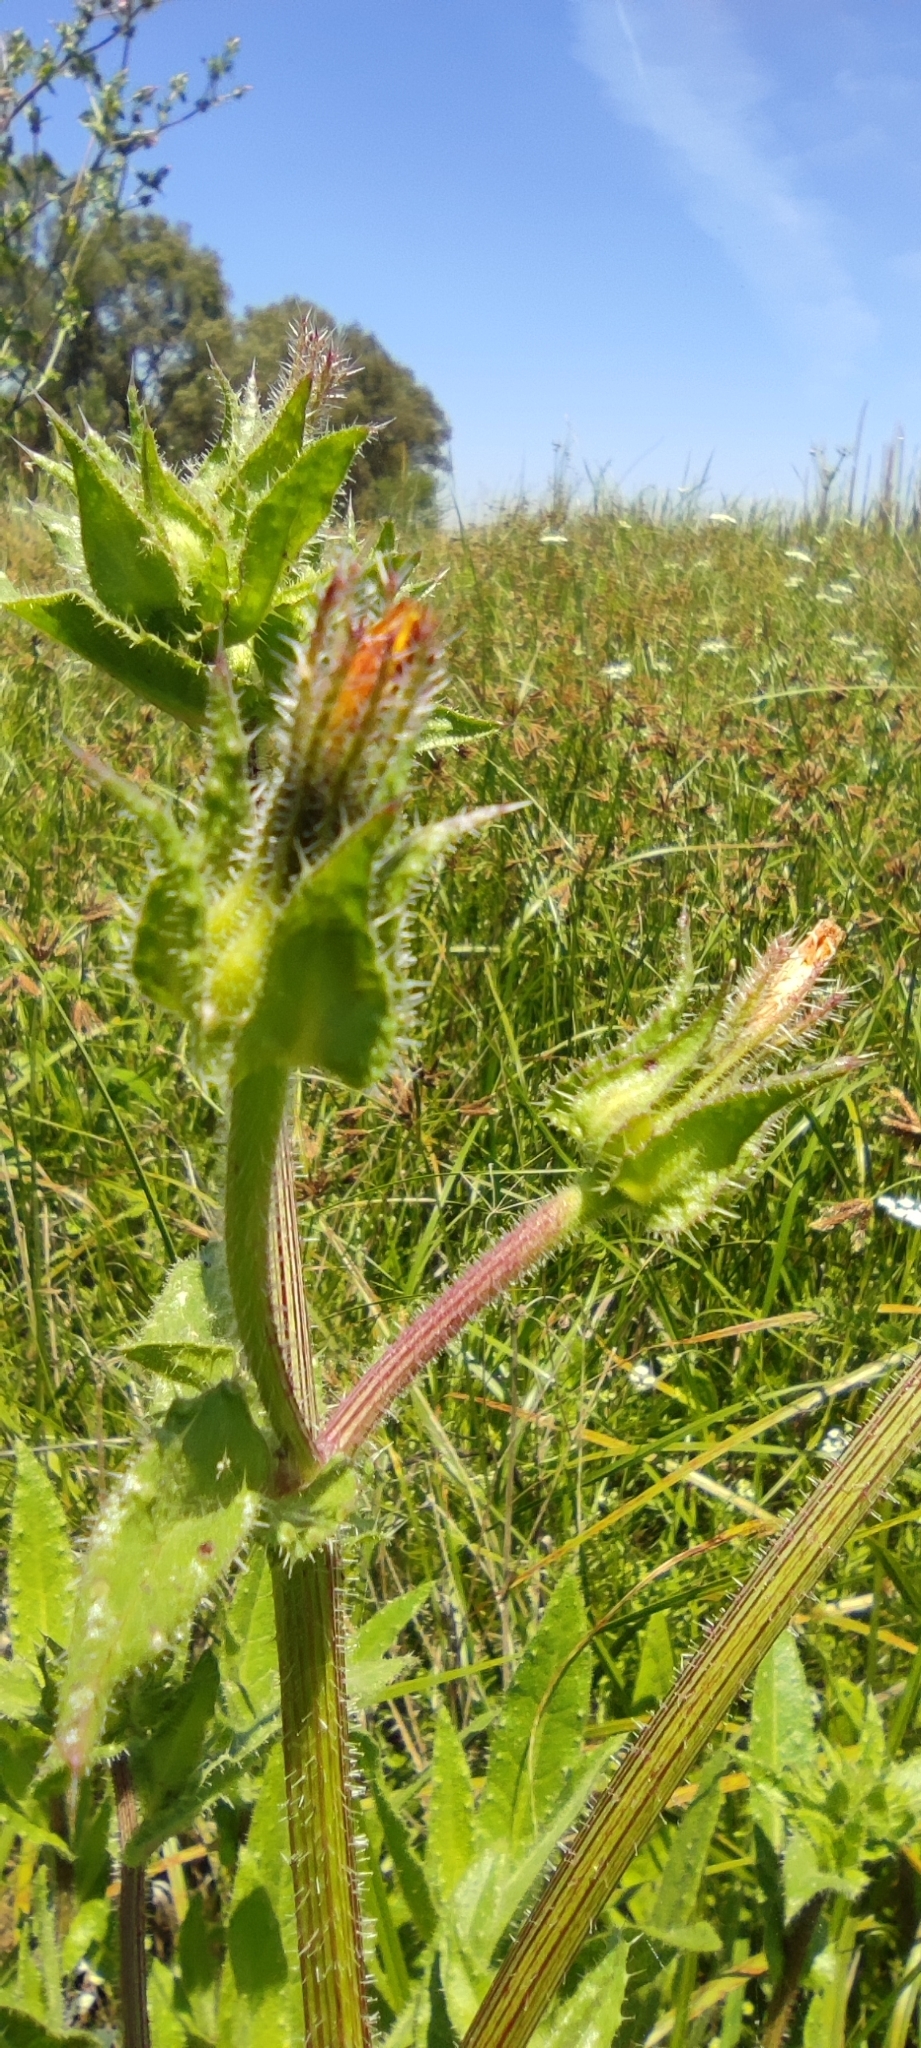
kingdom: Plantae
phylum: Tracheophyta
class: Magnoliopsida
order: Asterales
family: Asteraceae
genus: Helminthotheca
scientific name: Helminthotheca echioides
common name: Ox-tongue
